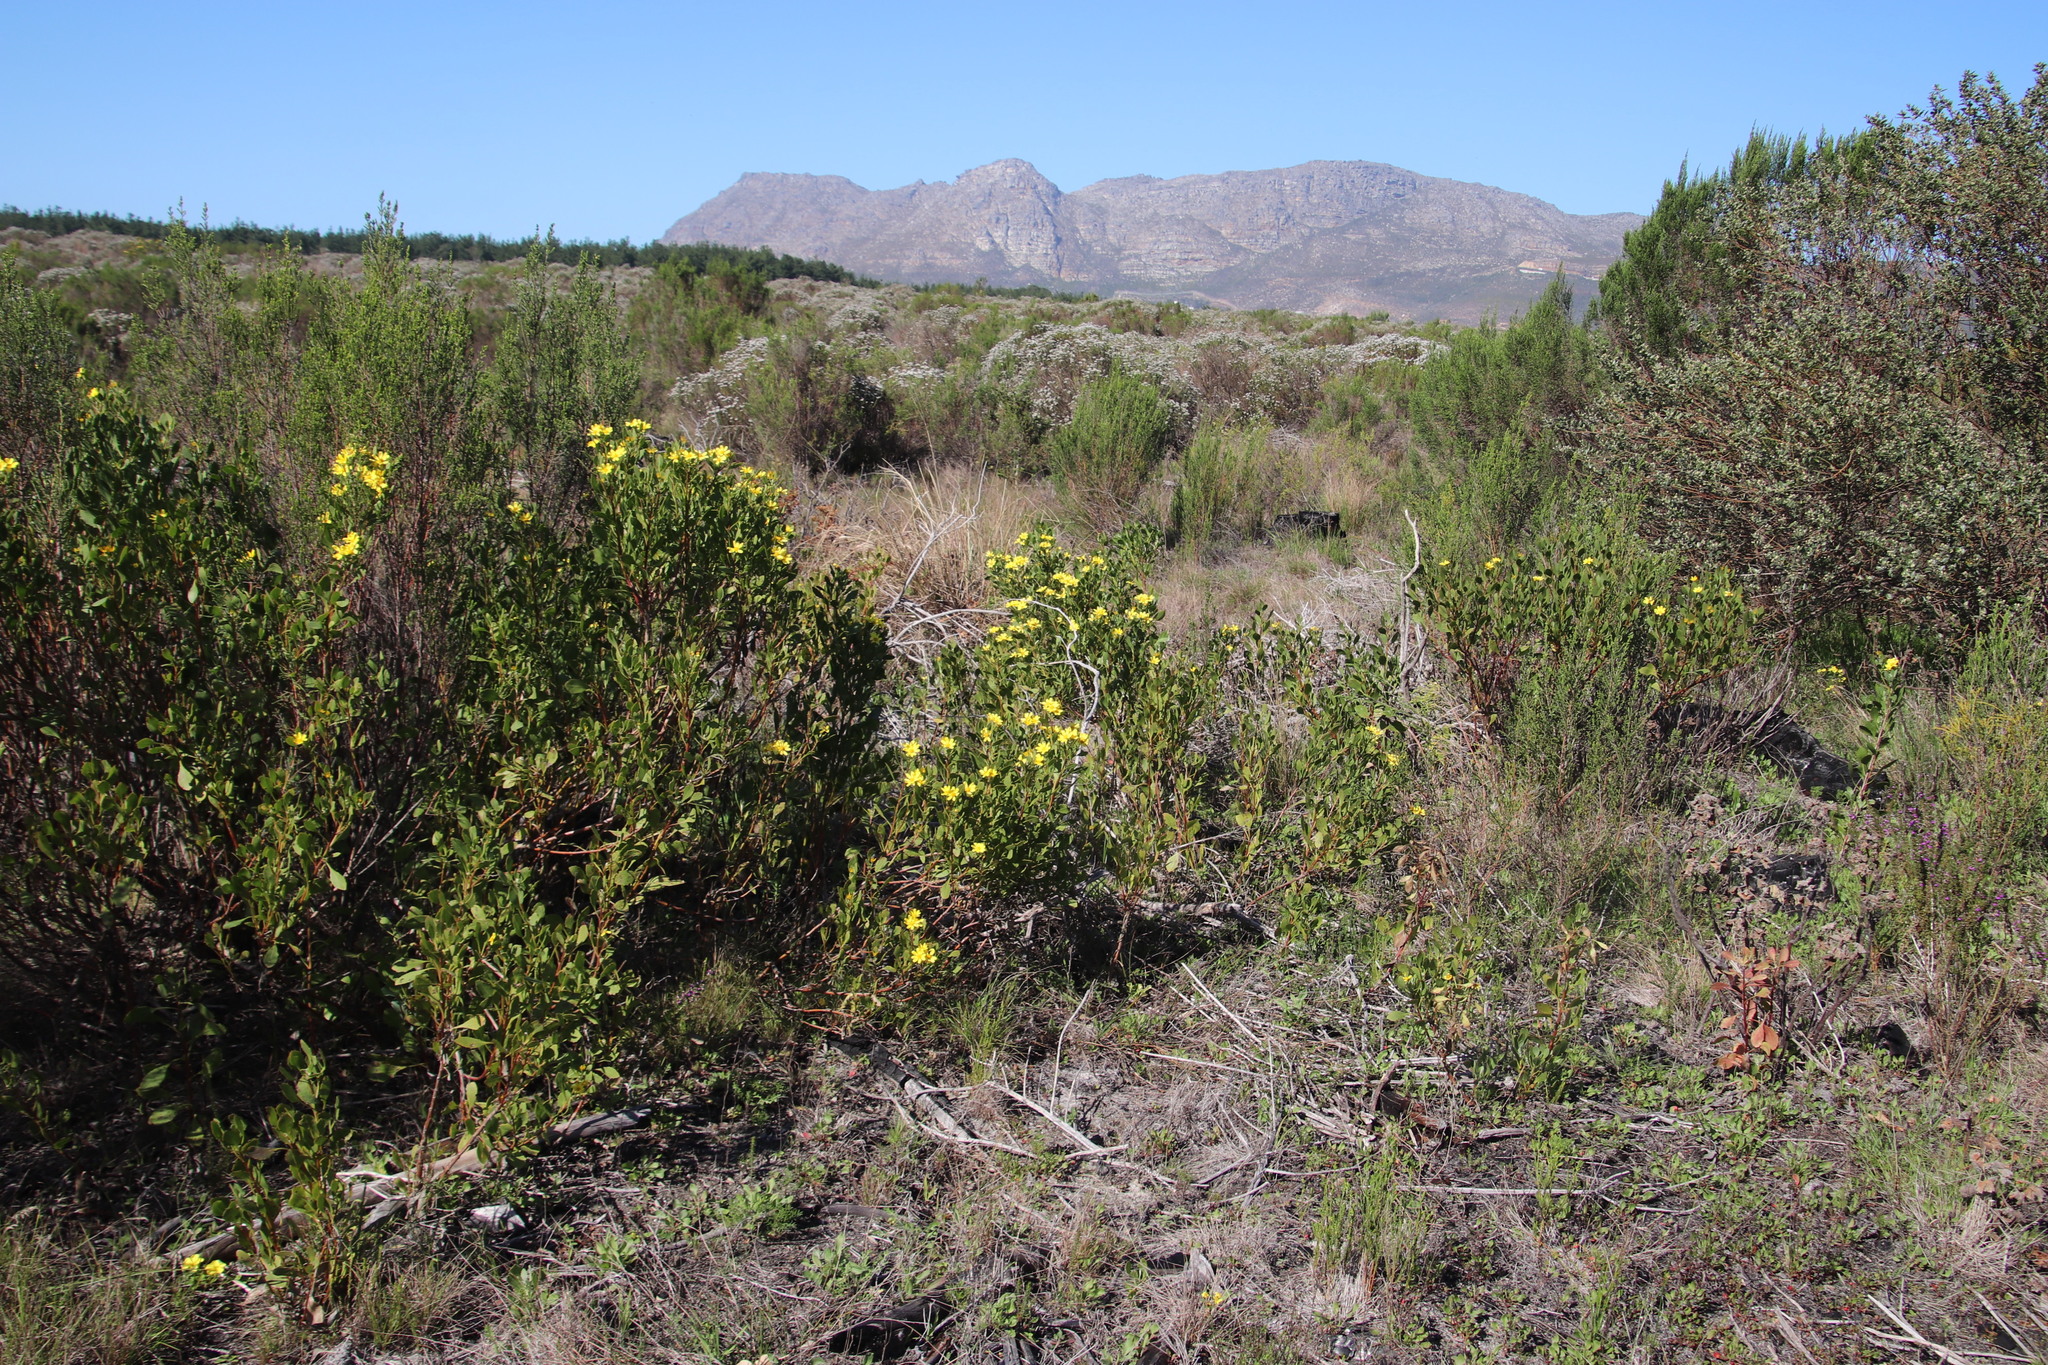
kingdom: Plantae
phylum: Tracheophyta
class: Magnoliopsida
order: Asterales
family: Asteraceae
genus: Osteospermum
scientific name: Osteospermum moniliferum
